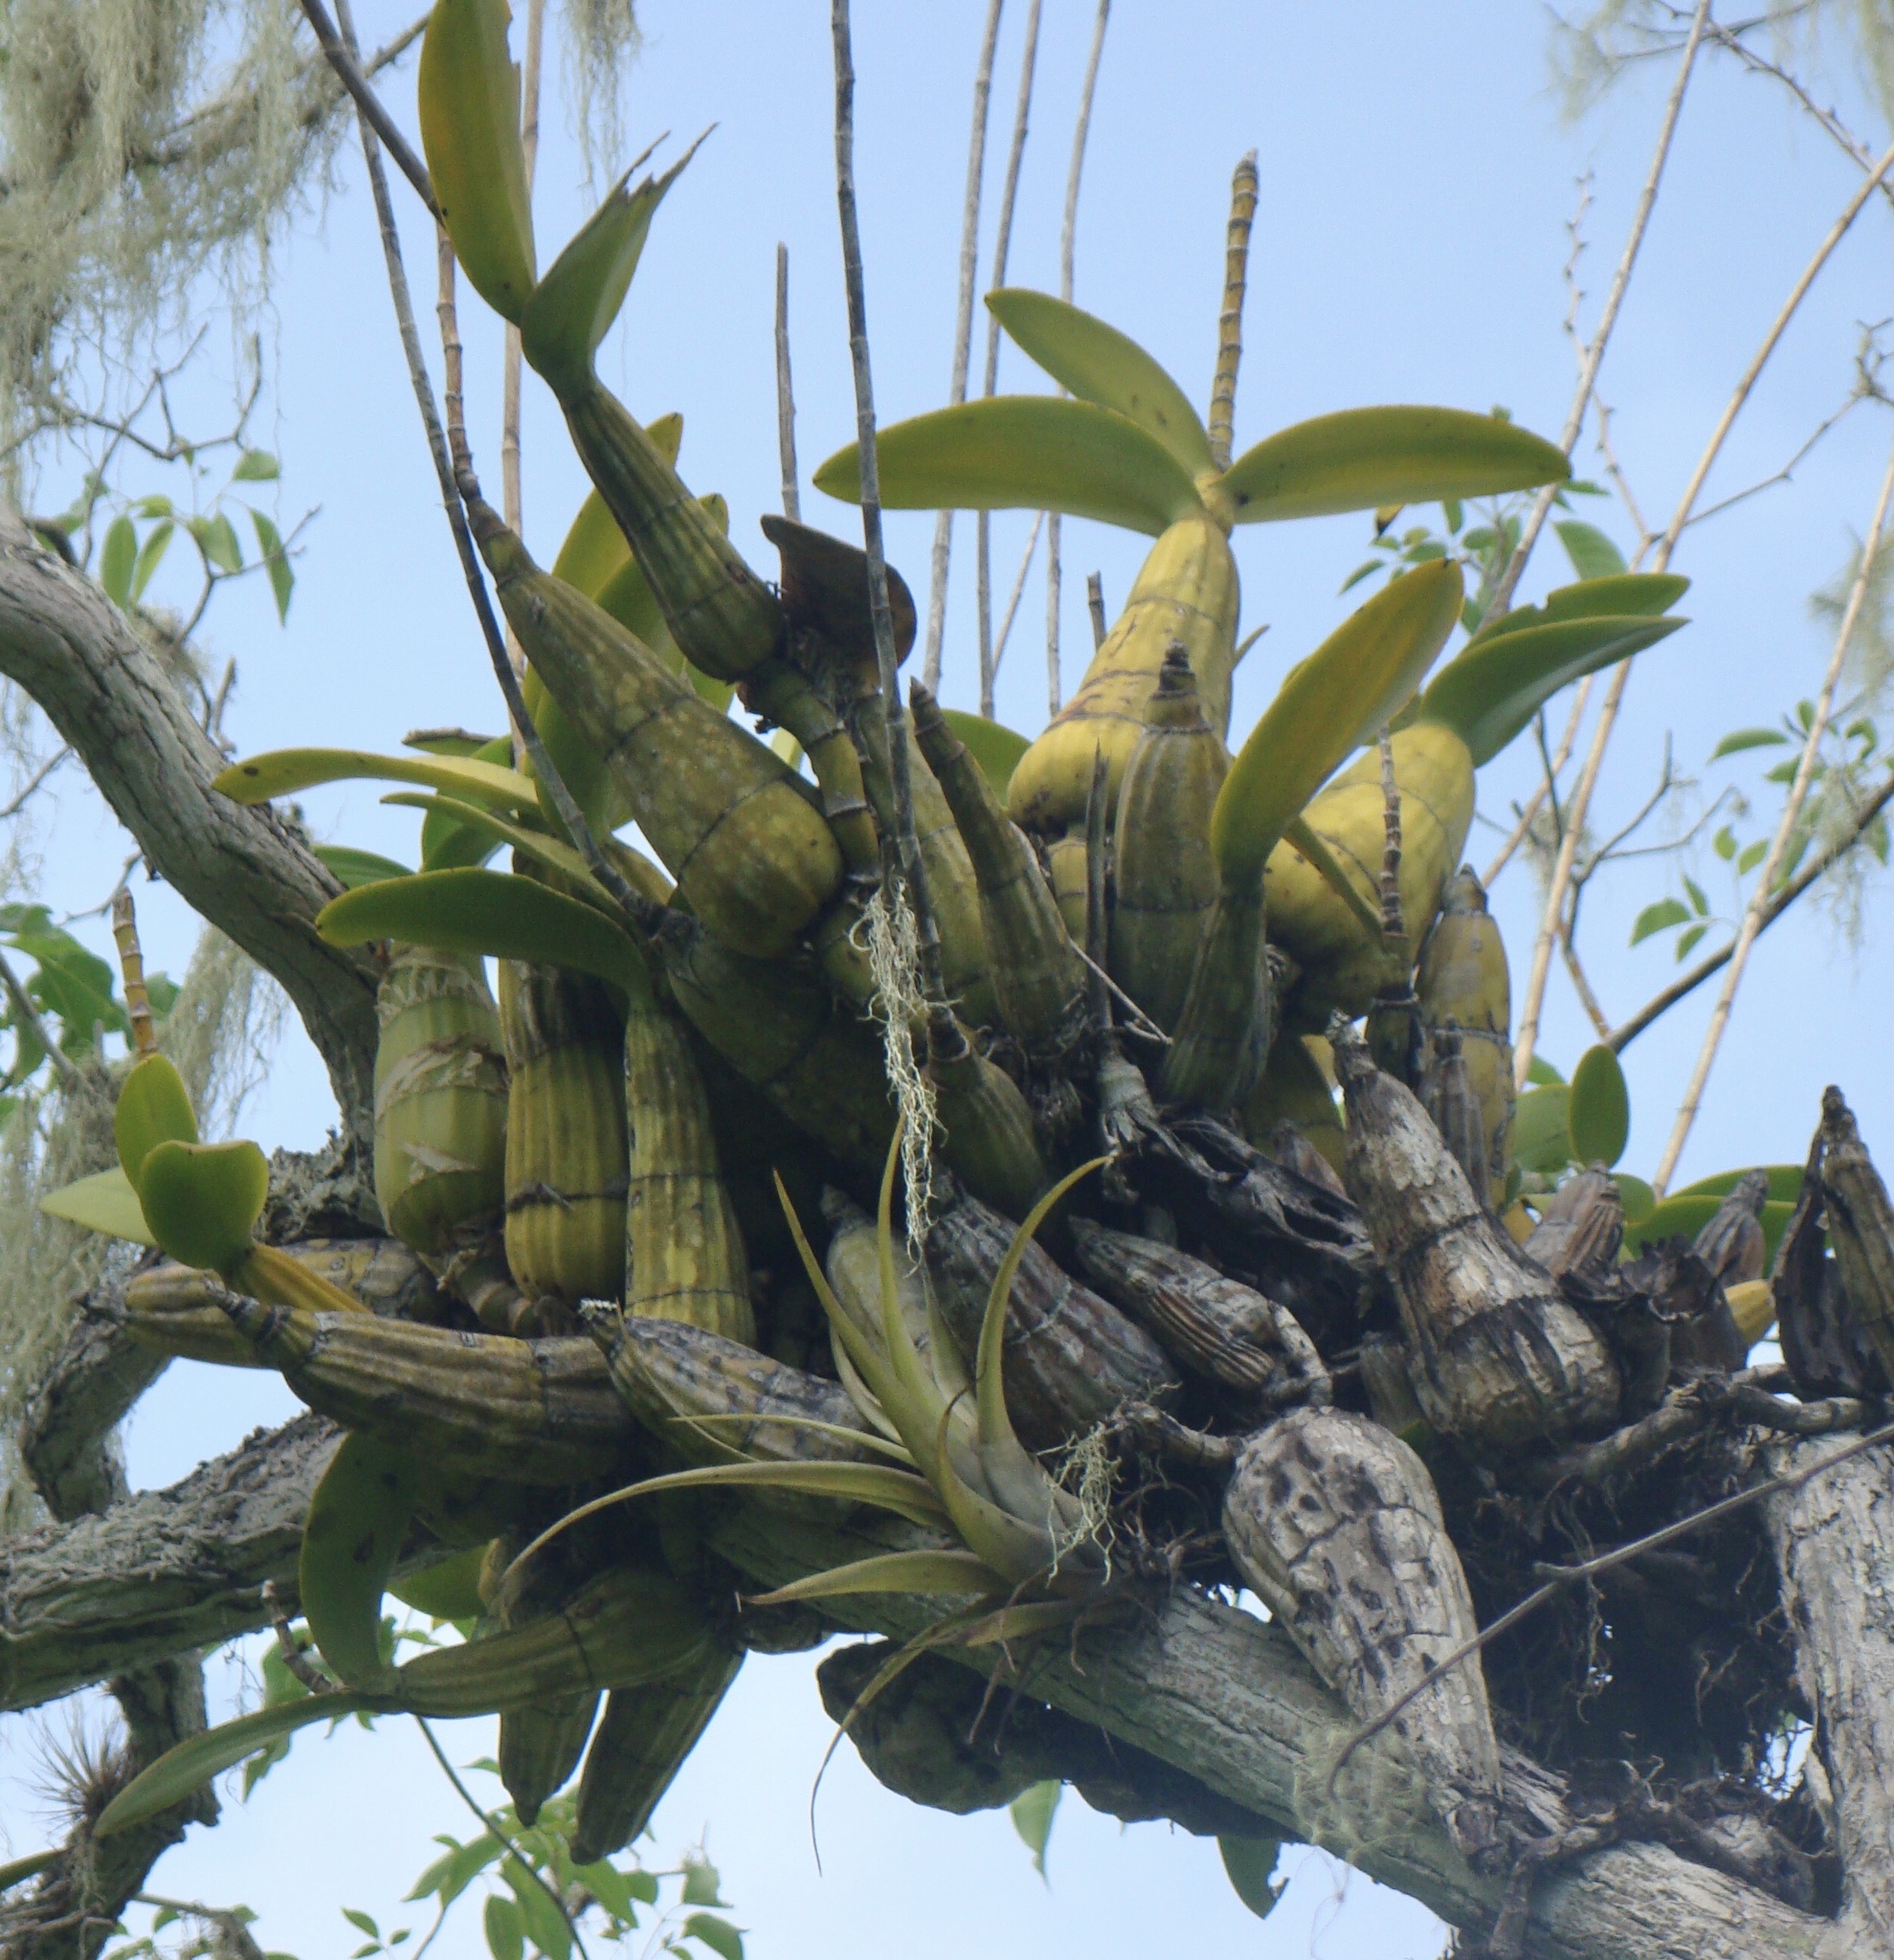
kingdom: Plantae
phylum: Tracheophyta
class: Liliopsida
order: Asparagales
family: Orchidaceae
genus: Myrmecophila
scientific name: Myrmecophila humboldtii
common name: Humboldt's orchid
